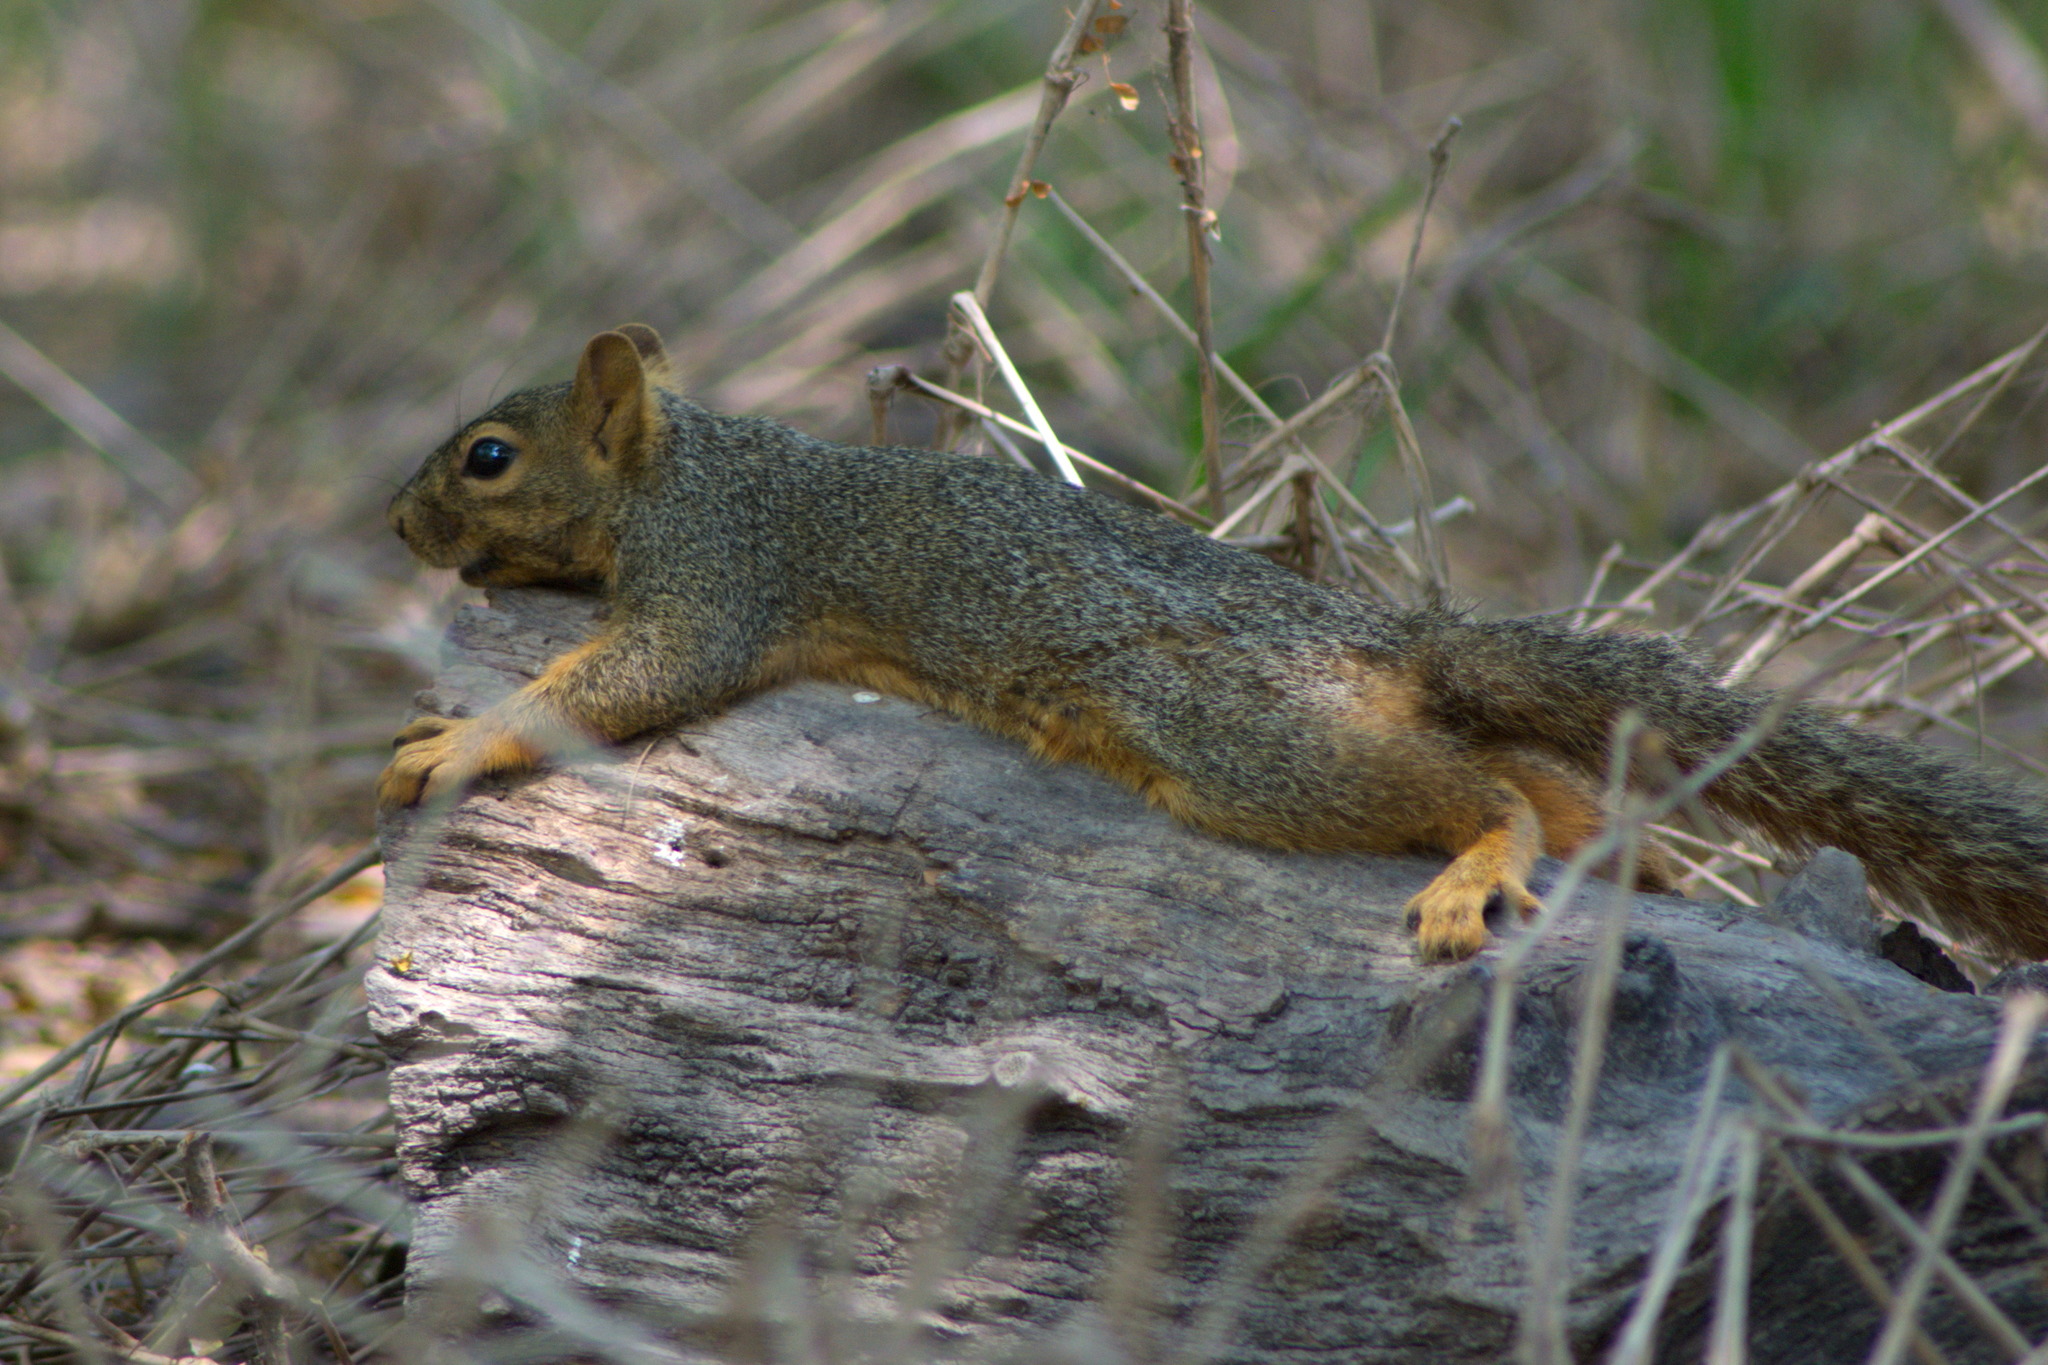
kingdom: Animalia
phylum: Chordata
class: Mammalia
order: Rodentia
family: Sciuridae
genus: Sciurus
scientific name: Sciurus niger
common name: Fox squirrel
